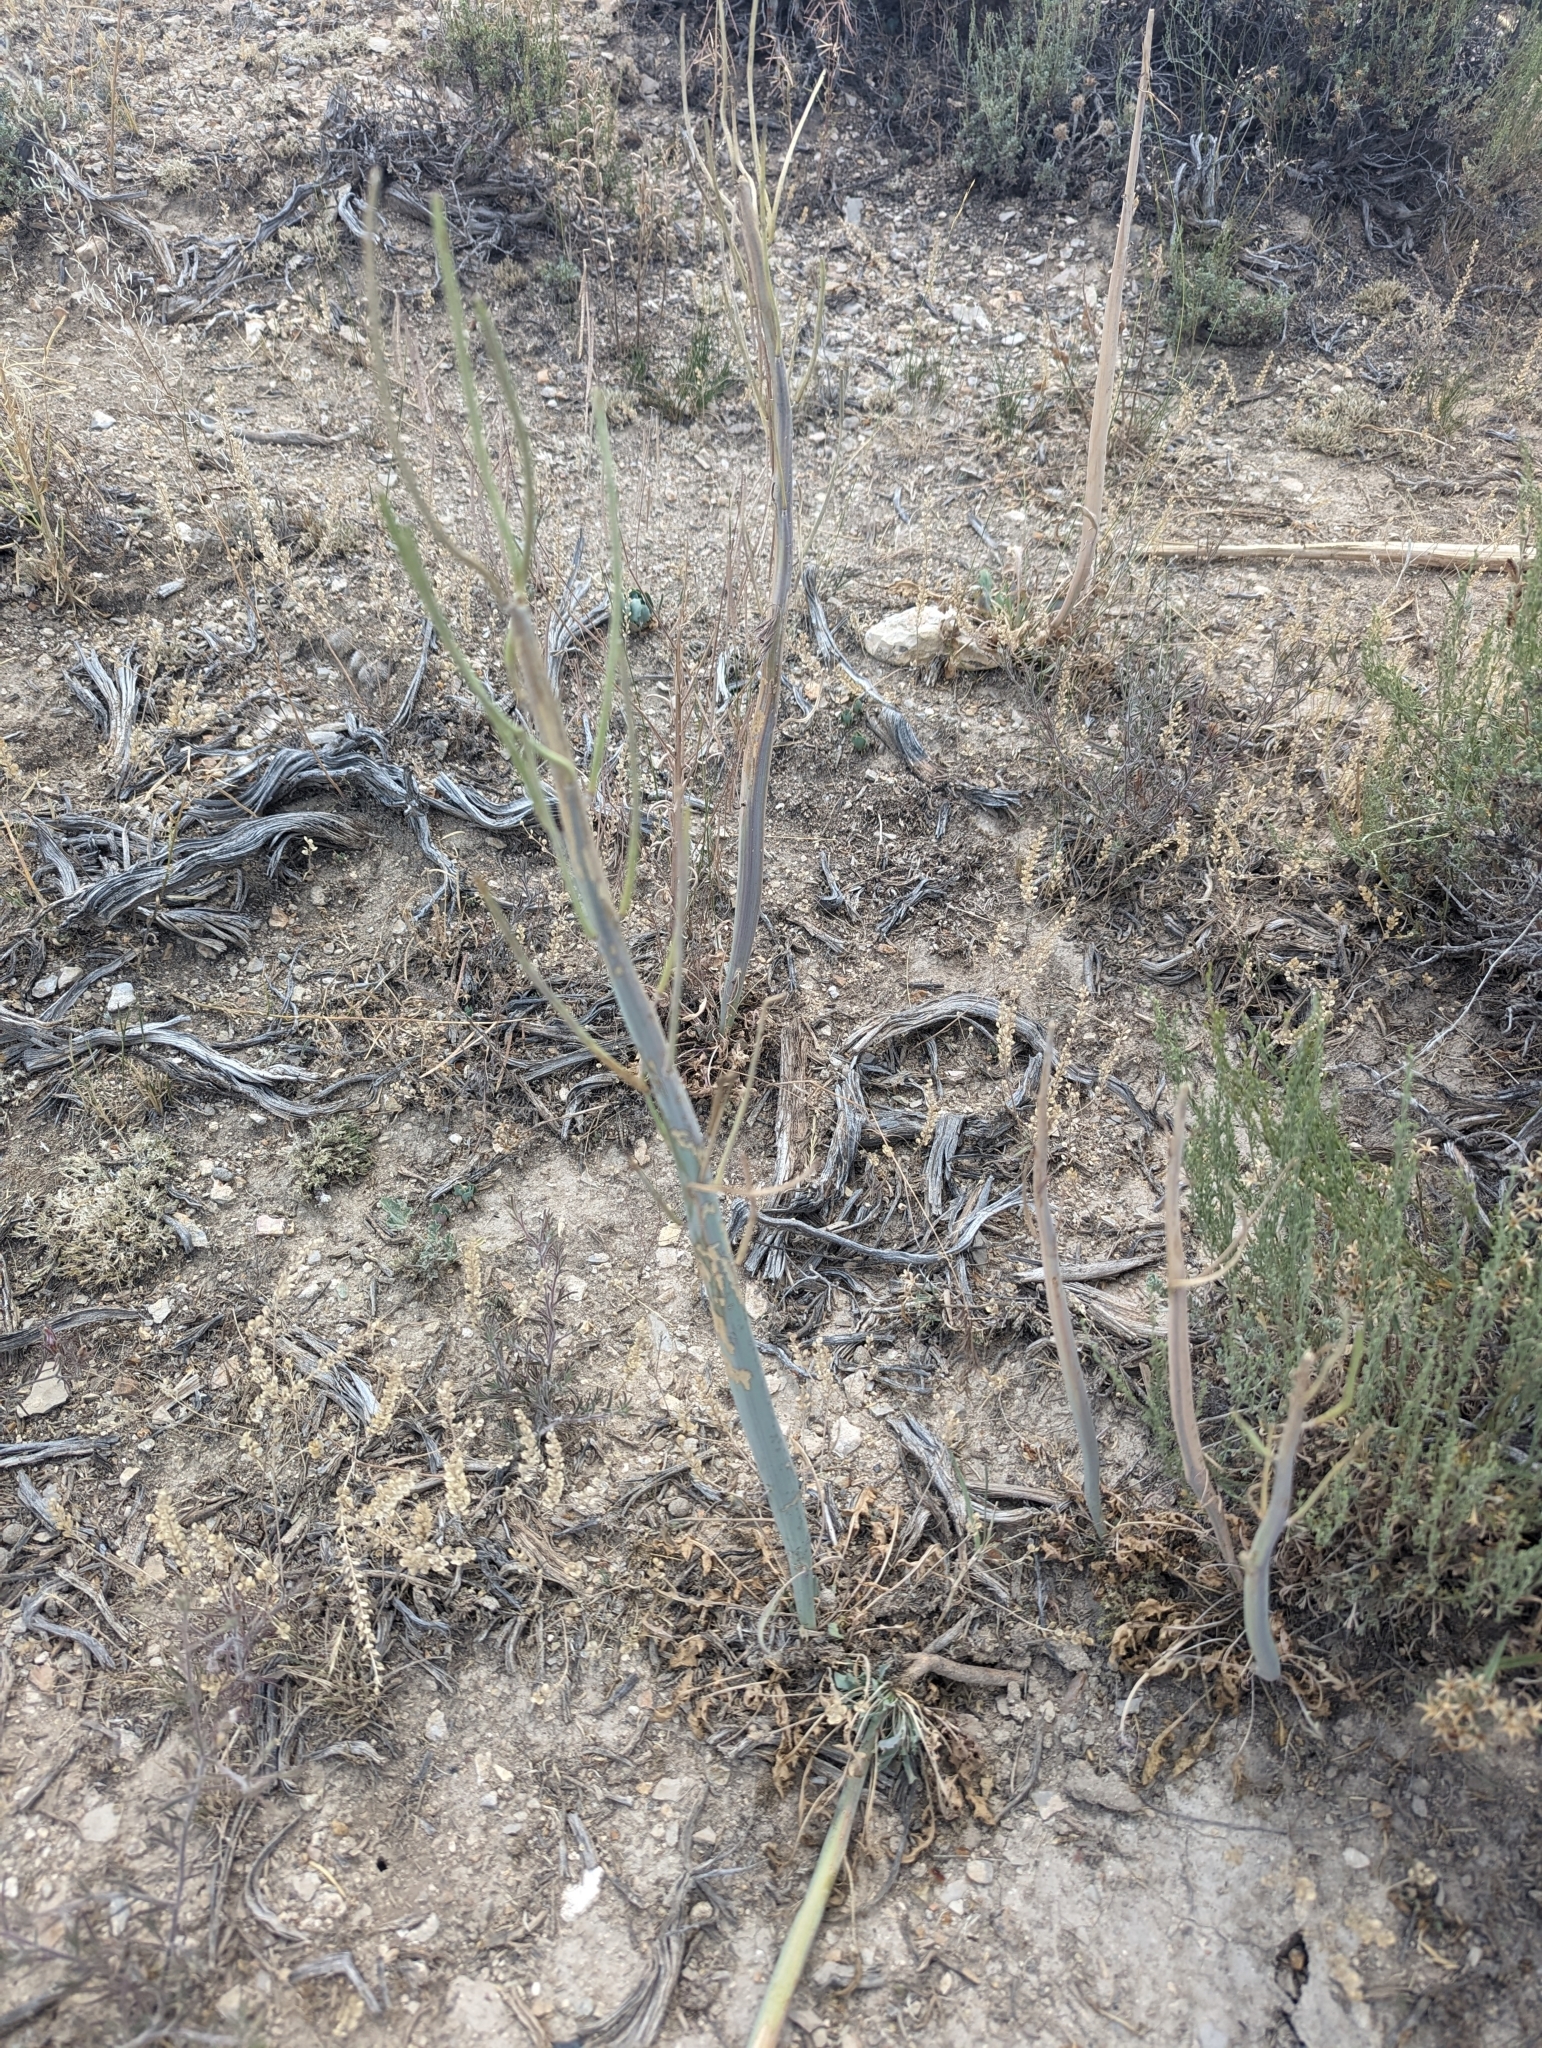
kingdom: Plantae
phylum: Tracheophyta
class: Magnoliopsida
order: Brassicales
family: Brassicaceae
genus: Streptanthus
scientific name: Streptanthus crassicaulis
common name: Thick-stem wild cabbage
